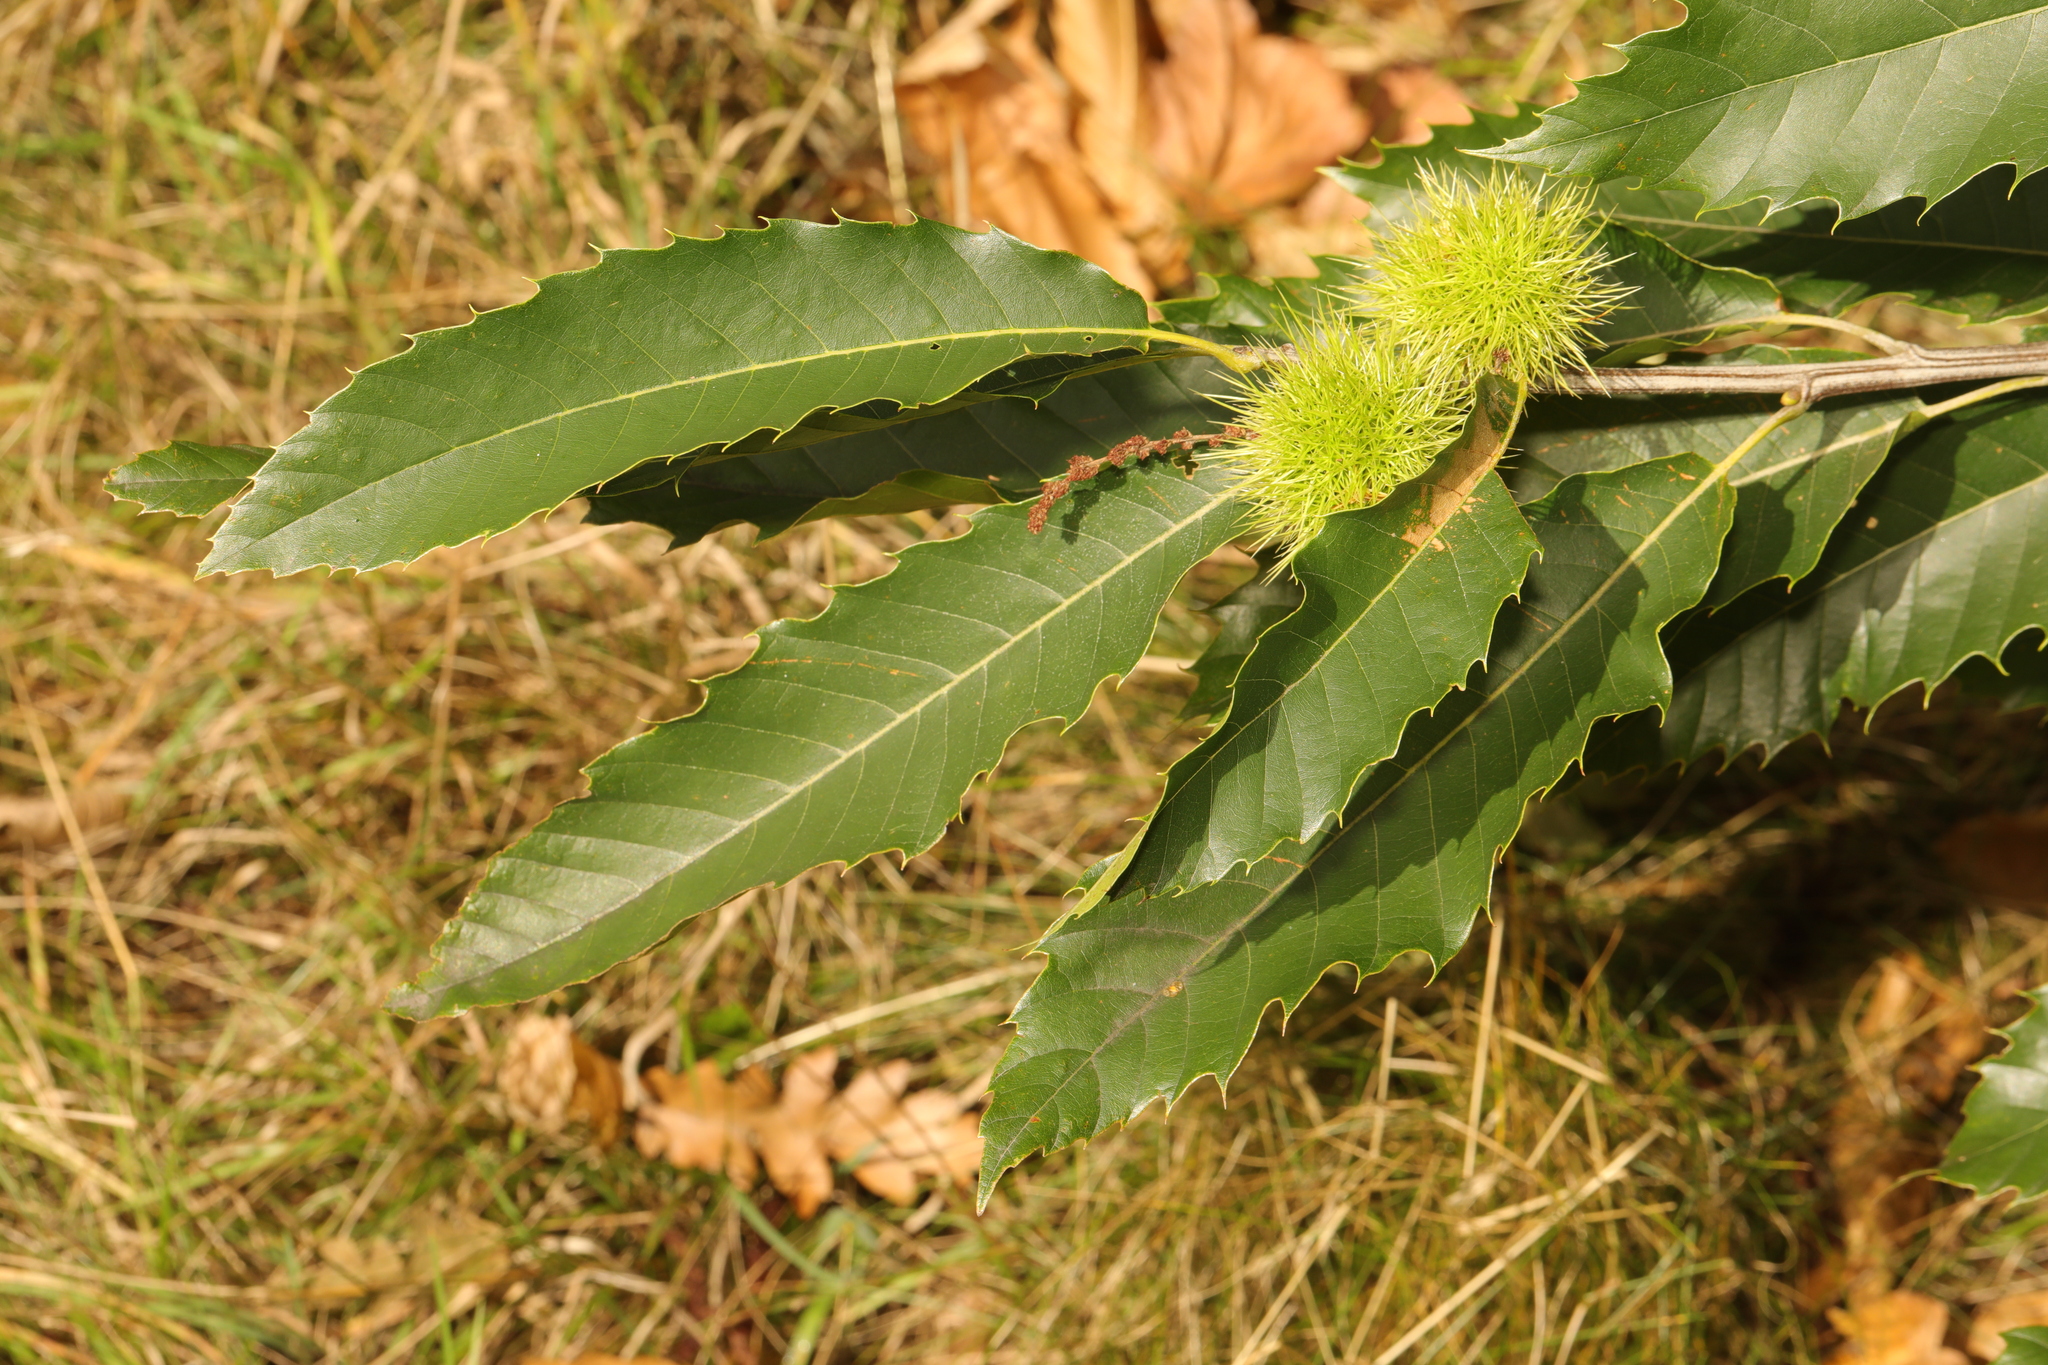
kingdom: Plantae
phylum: Tracheophyta
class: Magnoliopsida
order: Fagales
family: Fagaceae
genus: Castanea
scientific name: Castanea sativa
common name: Sweet chestnut
